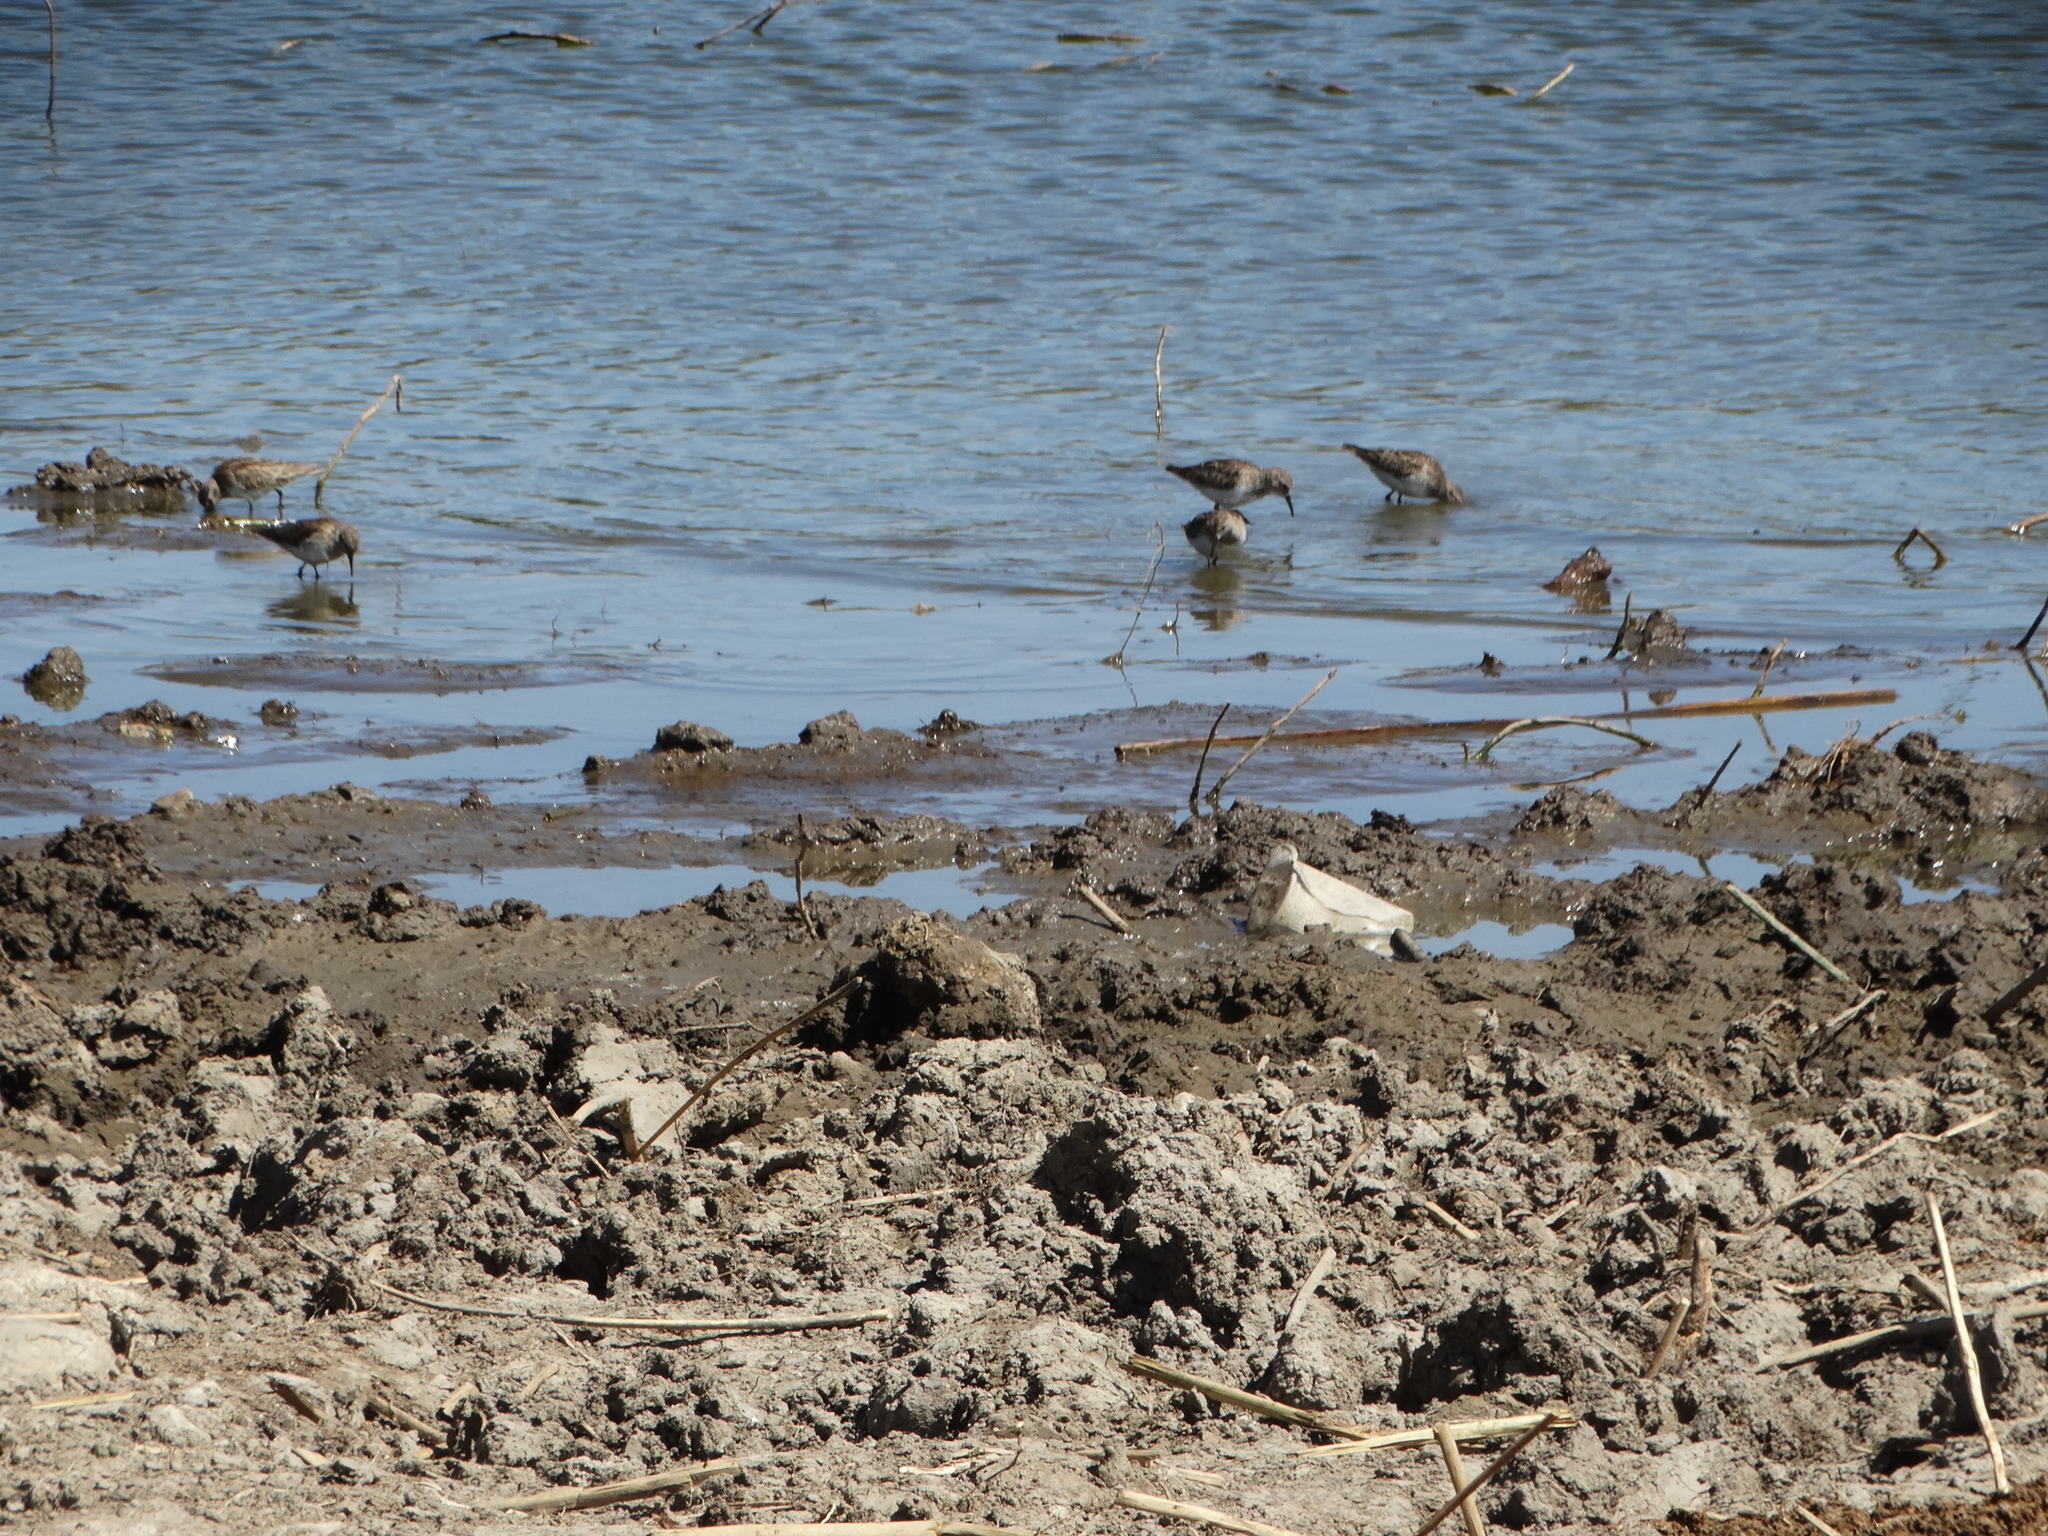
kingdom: Animalia
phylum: Chordata
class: Aves
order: Charadriiformes
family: Scolopacidae
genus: Calidris
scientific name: Calidris minutilla
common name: Least sandpiper
